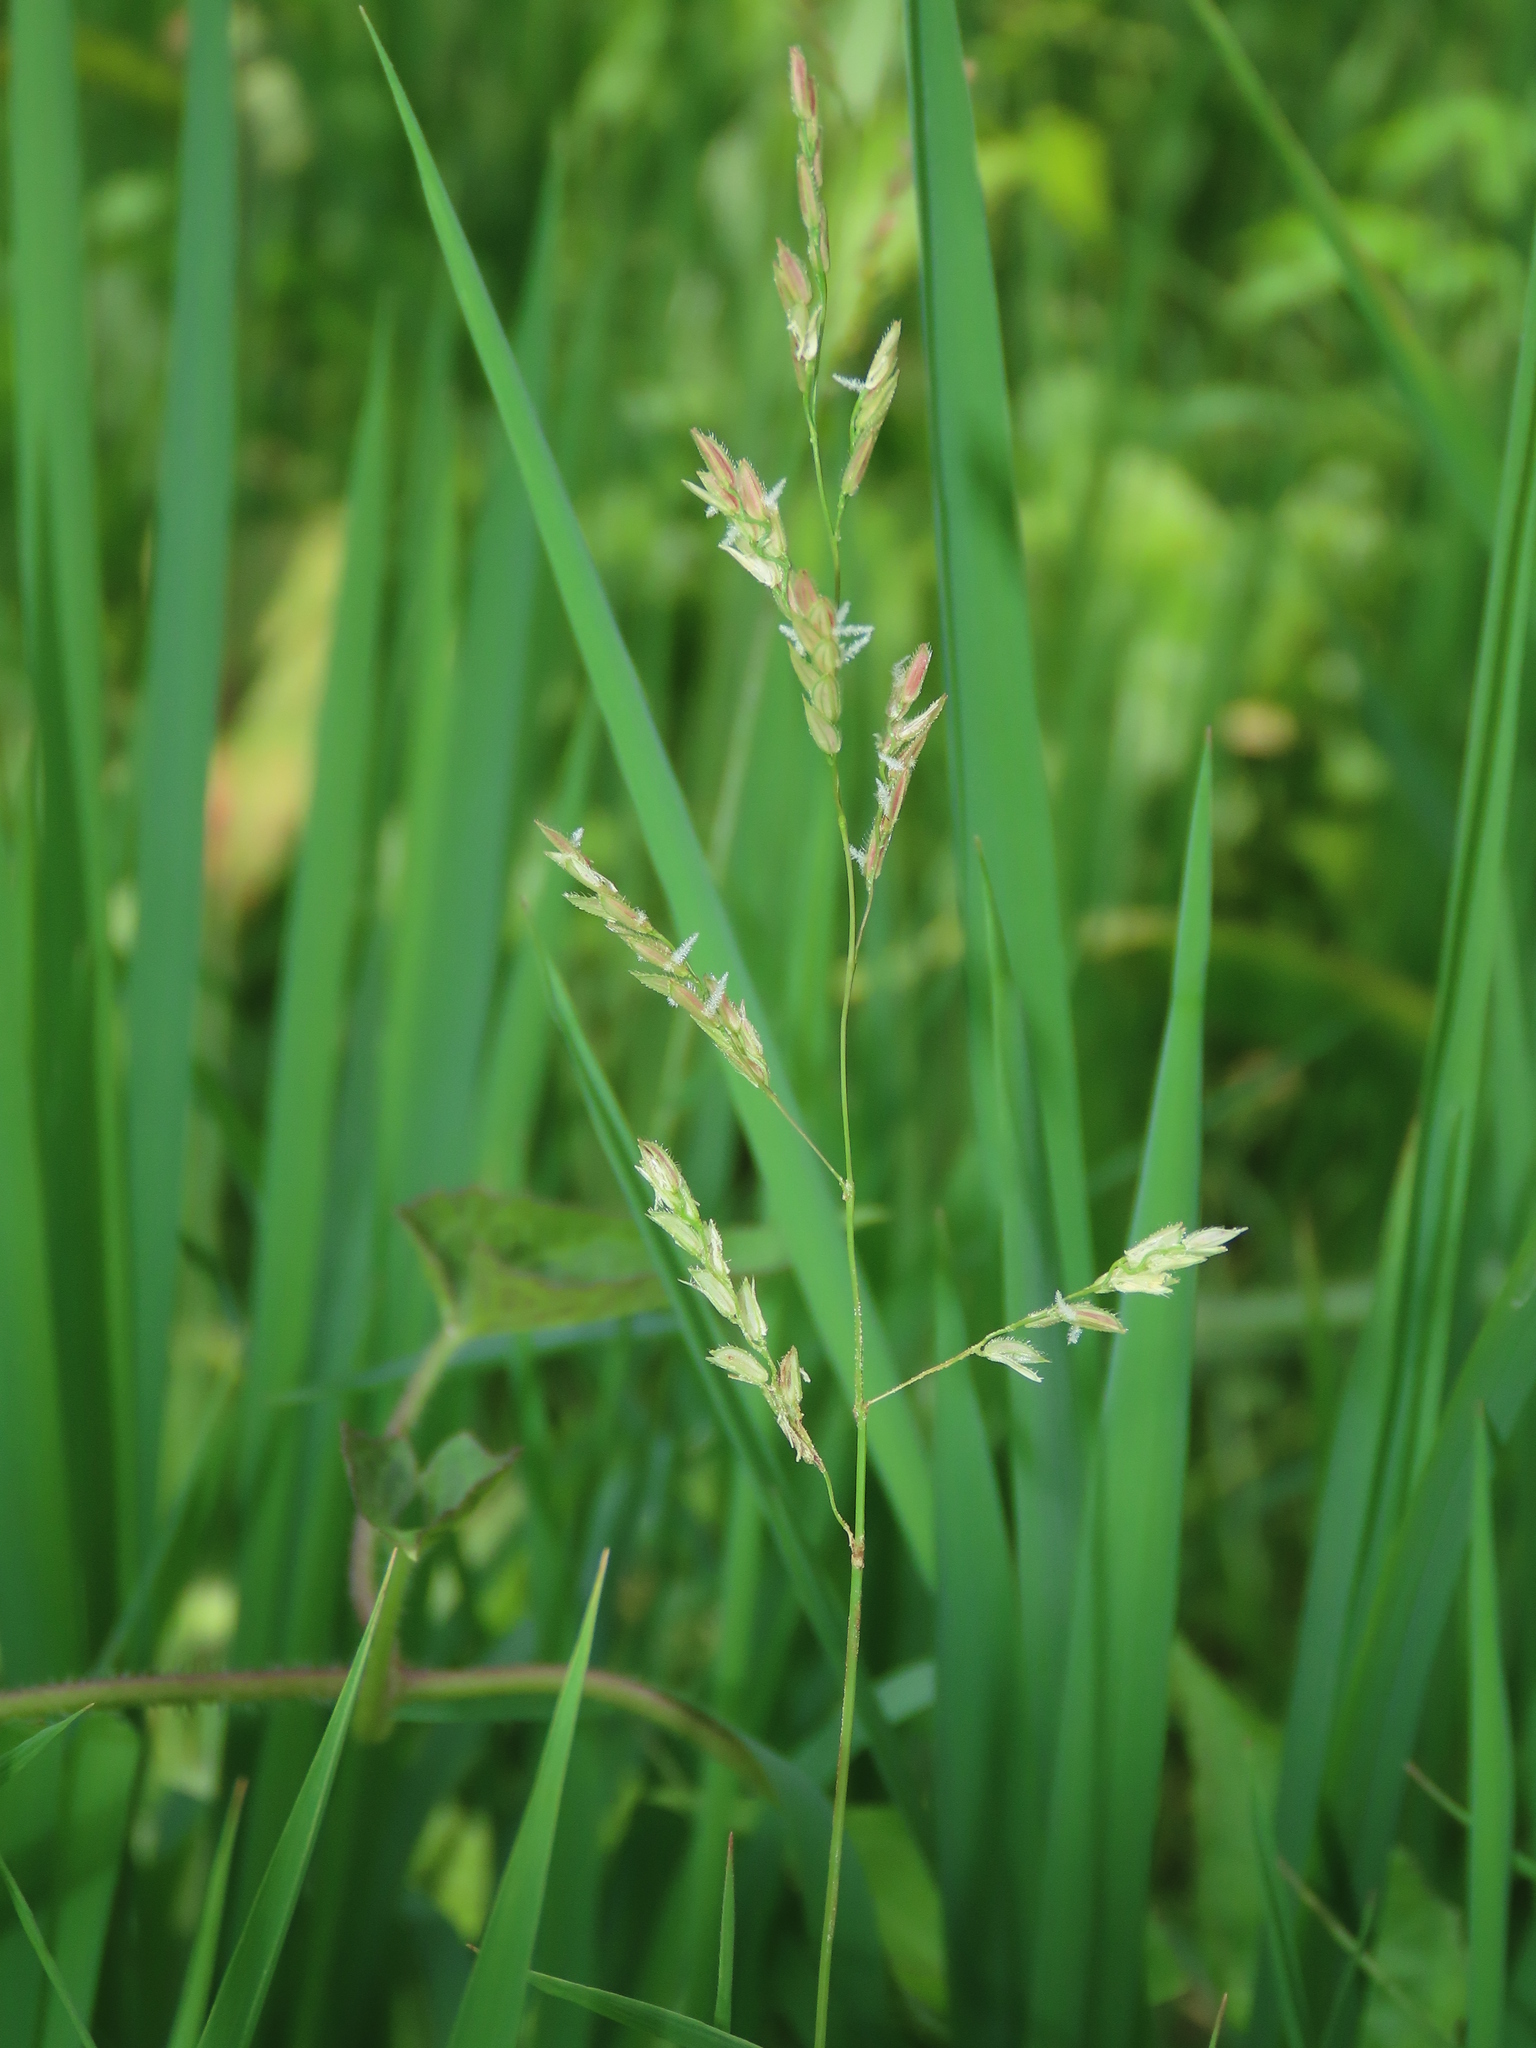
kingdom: Plantae
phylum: Tracheophyta
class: Liliopsida
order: Poales
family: Poaceae
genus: Leersia
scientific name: Leersia hexandra
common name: Southern cut grass
